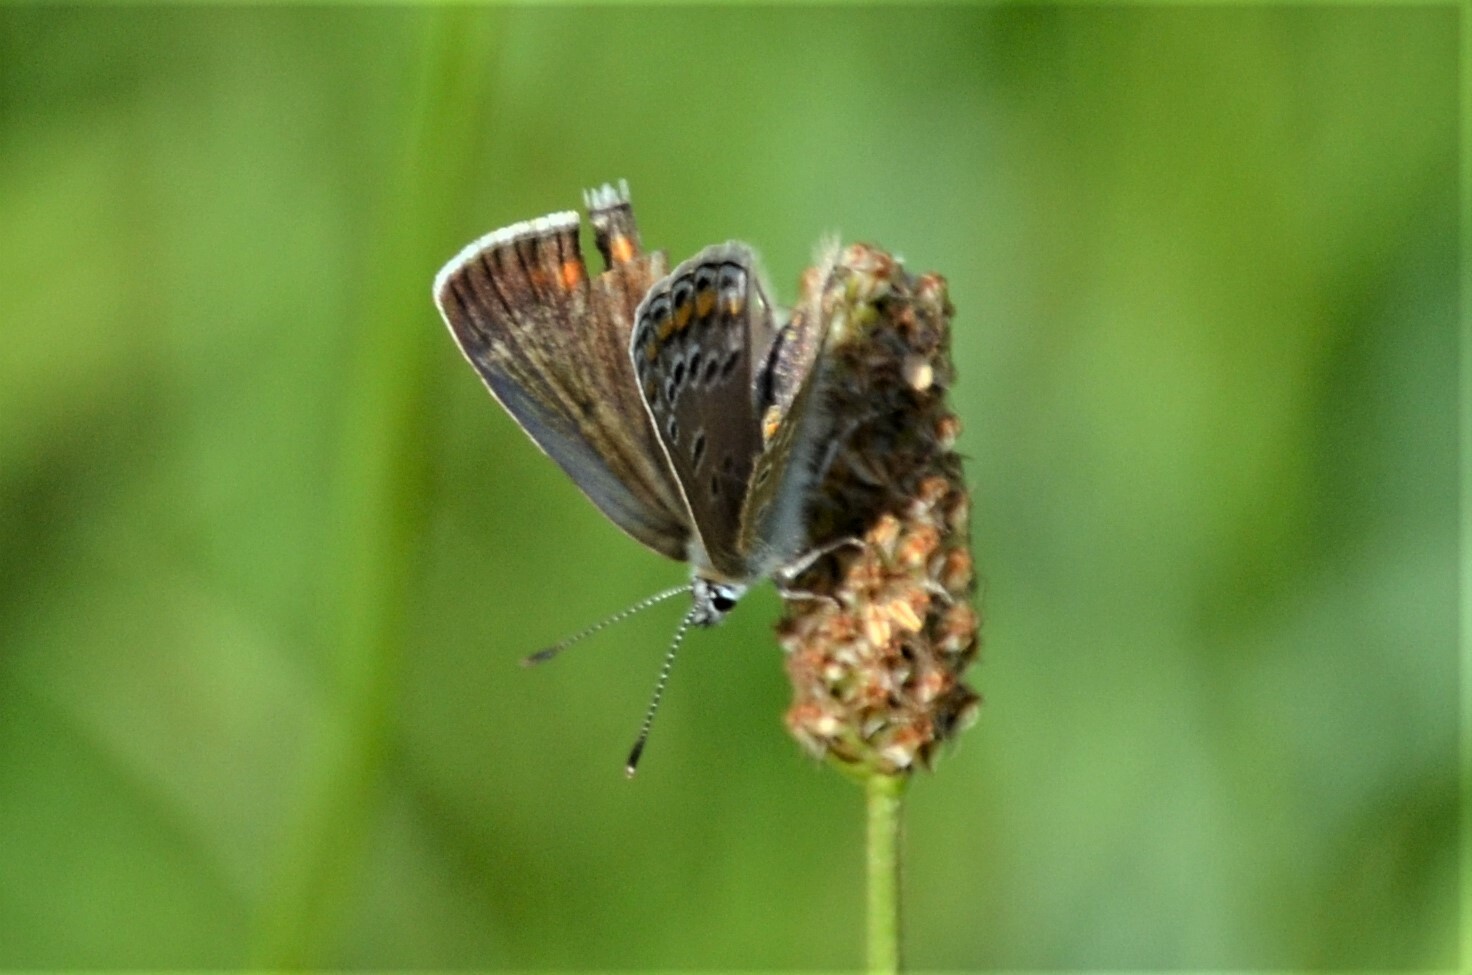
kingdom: Animalia
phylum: Arthropoda
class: Insecta
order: Lepidoptera
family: Lycaenidae
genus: Polyommatus
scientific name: Polyommatus icarus
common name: Common blue
